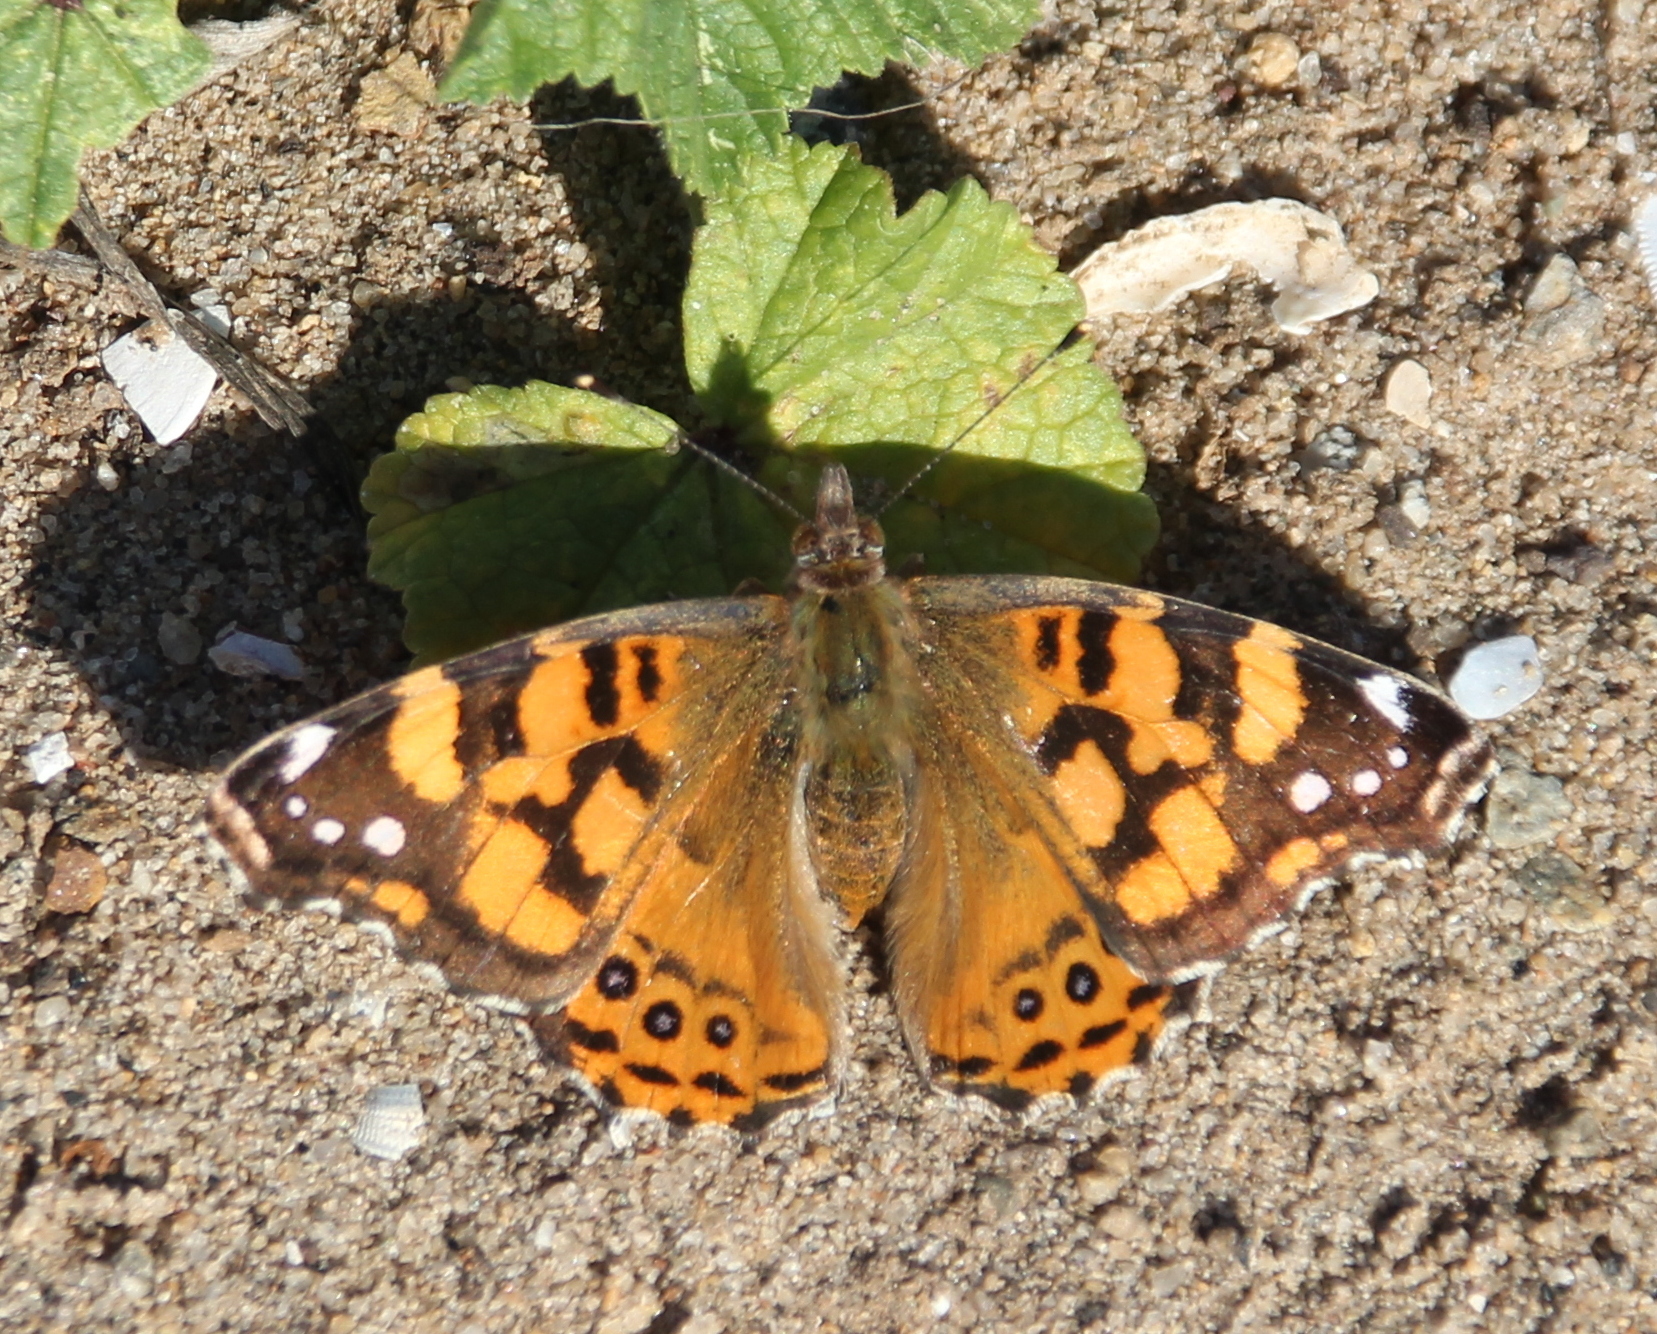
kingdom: Animalia
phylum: Arthropoda
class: Insecta
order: Lepidoptera
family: Nymphalidae
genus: Vanessa
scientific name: Vanessa annabella
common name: West coast lady
